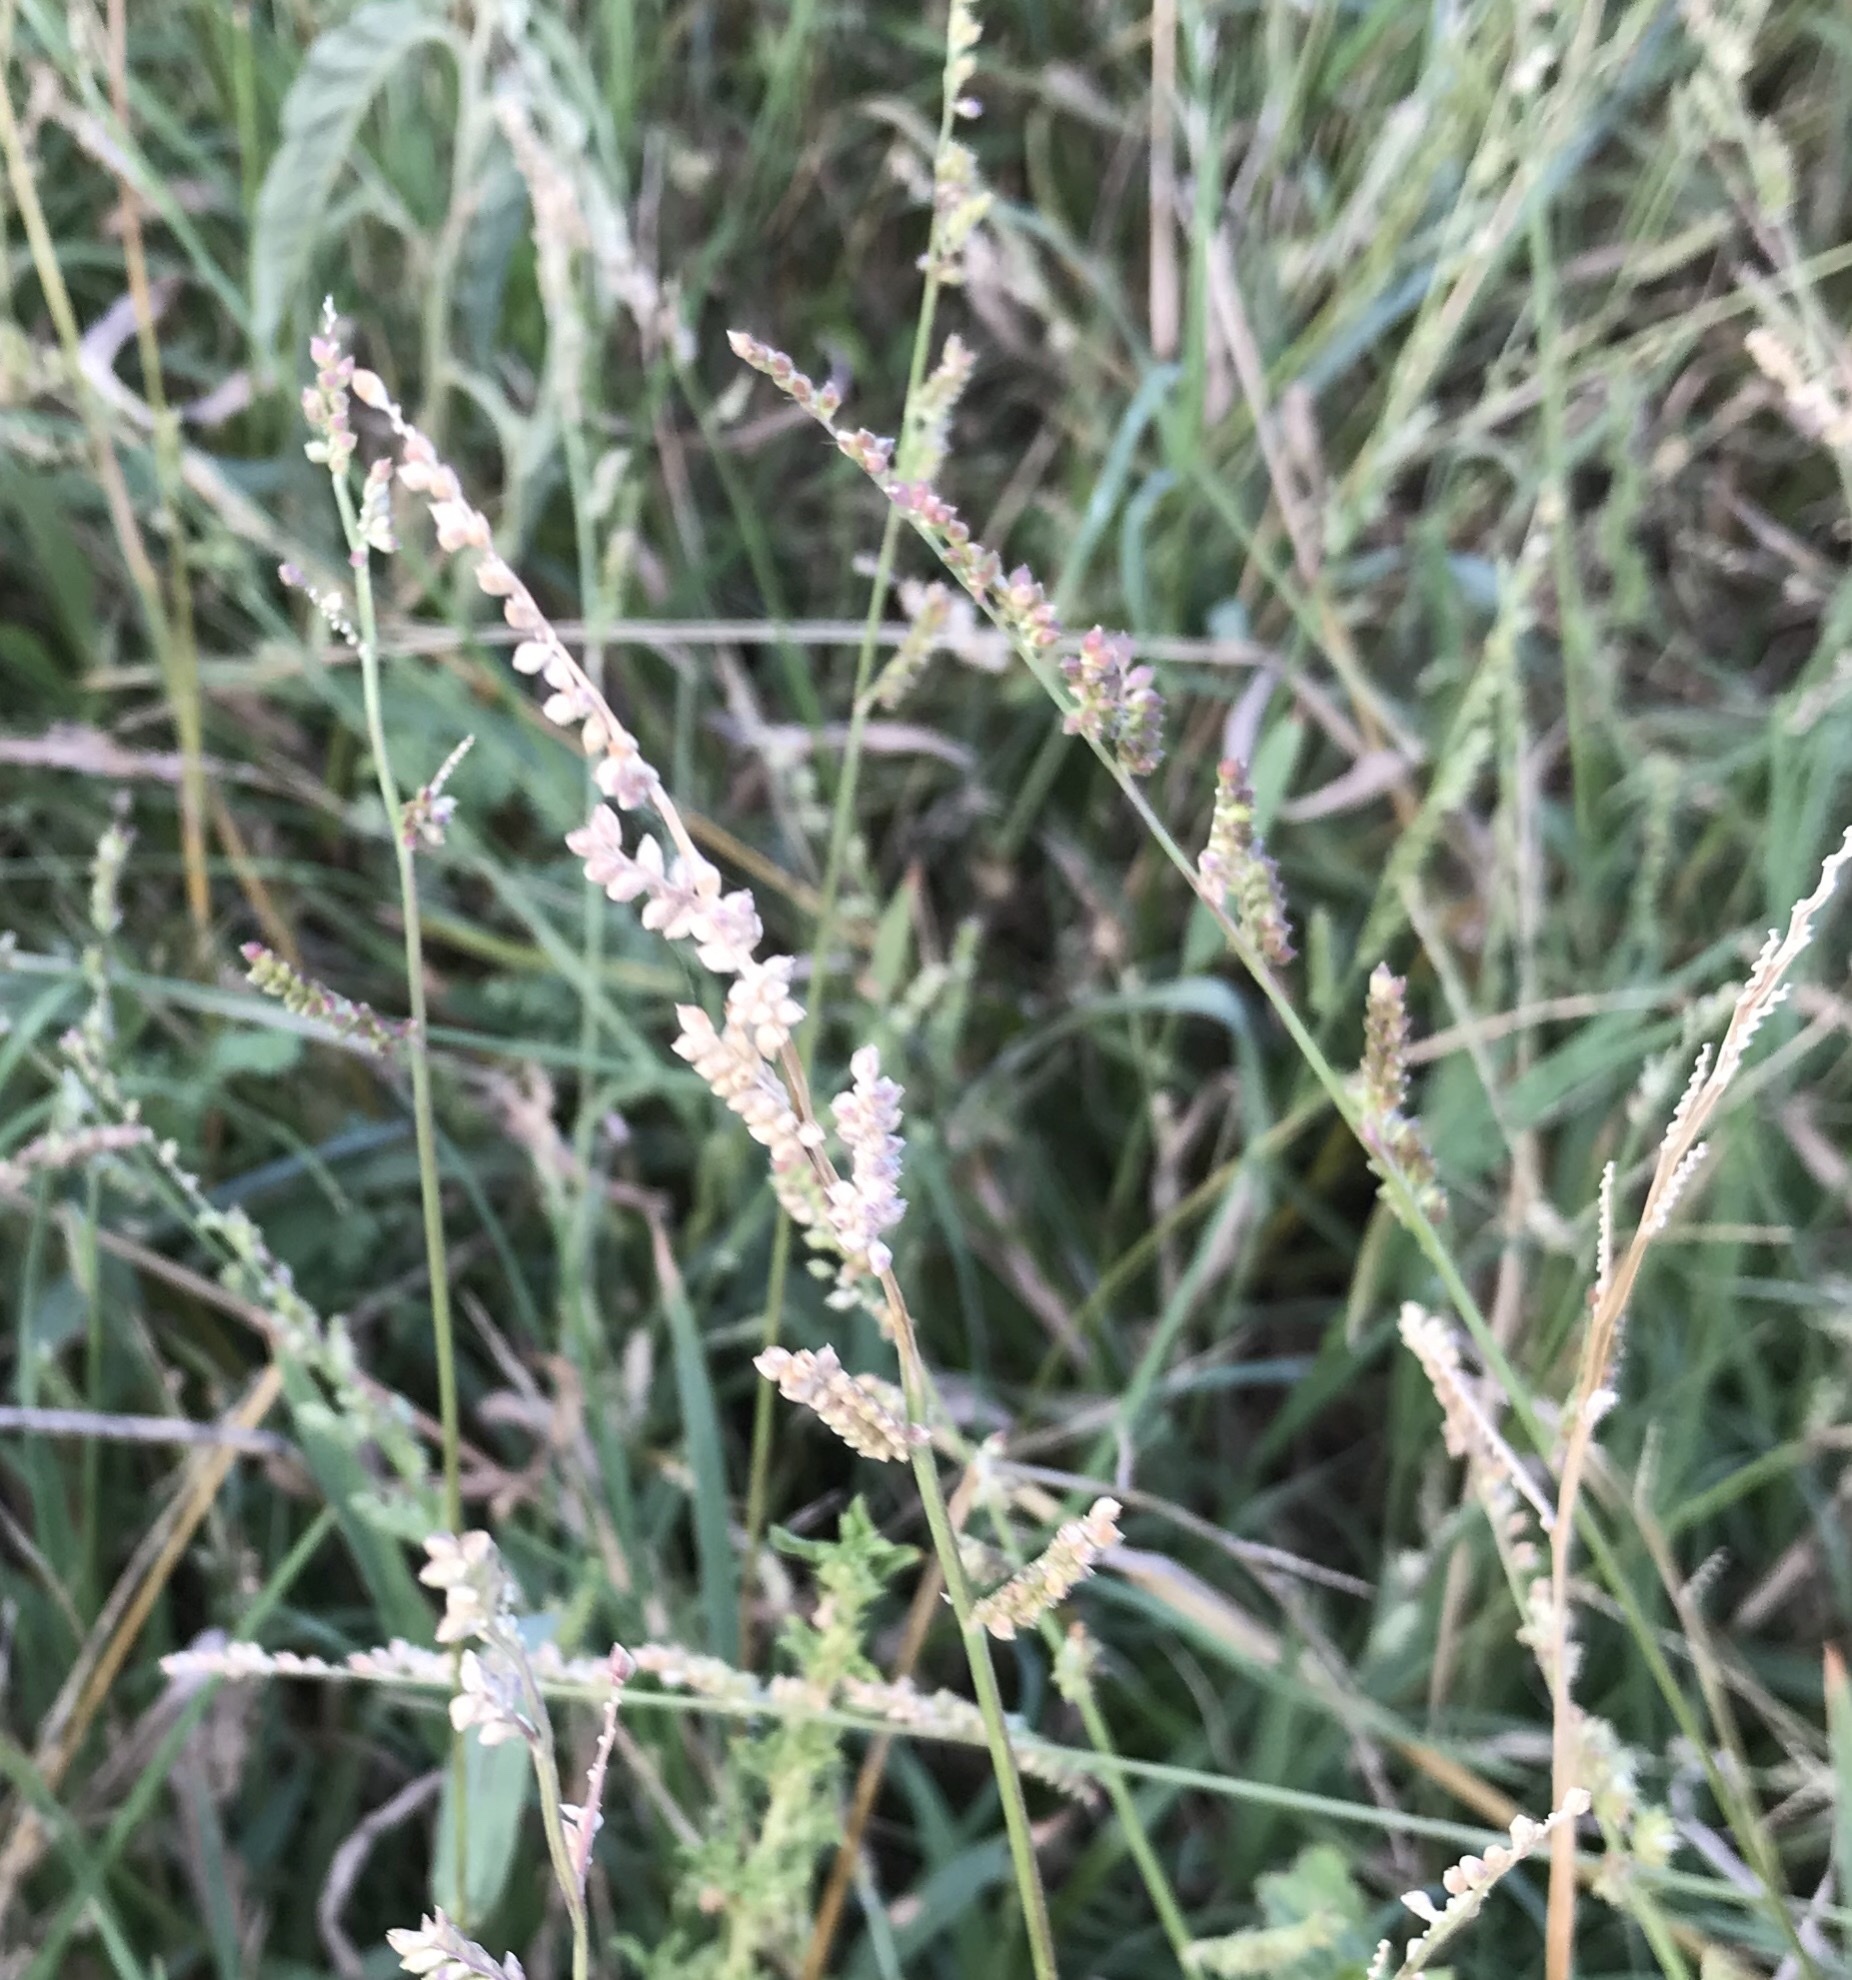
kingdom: Plantae
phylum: Tracheophyta
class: Liliopsida
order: Poales
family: Poaceae
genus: Echinochloa
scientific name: Echinochloa colonum
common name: Jungle rice
